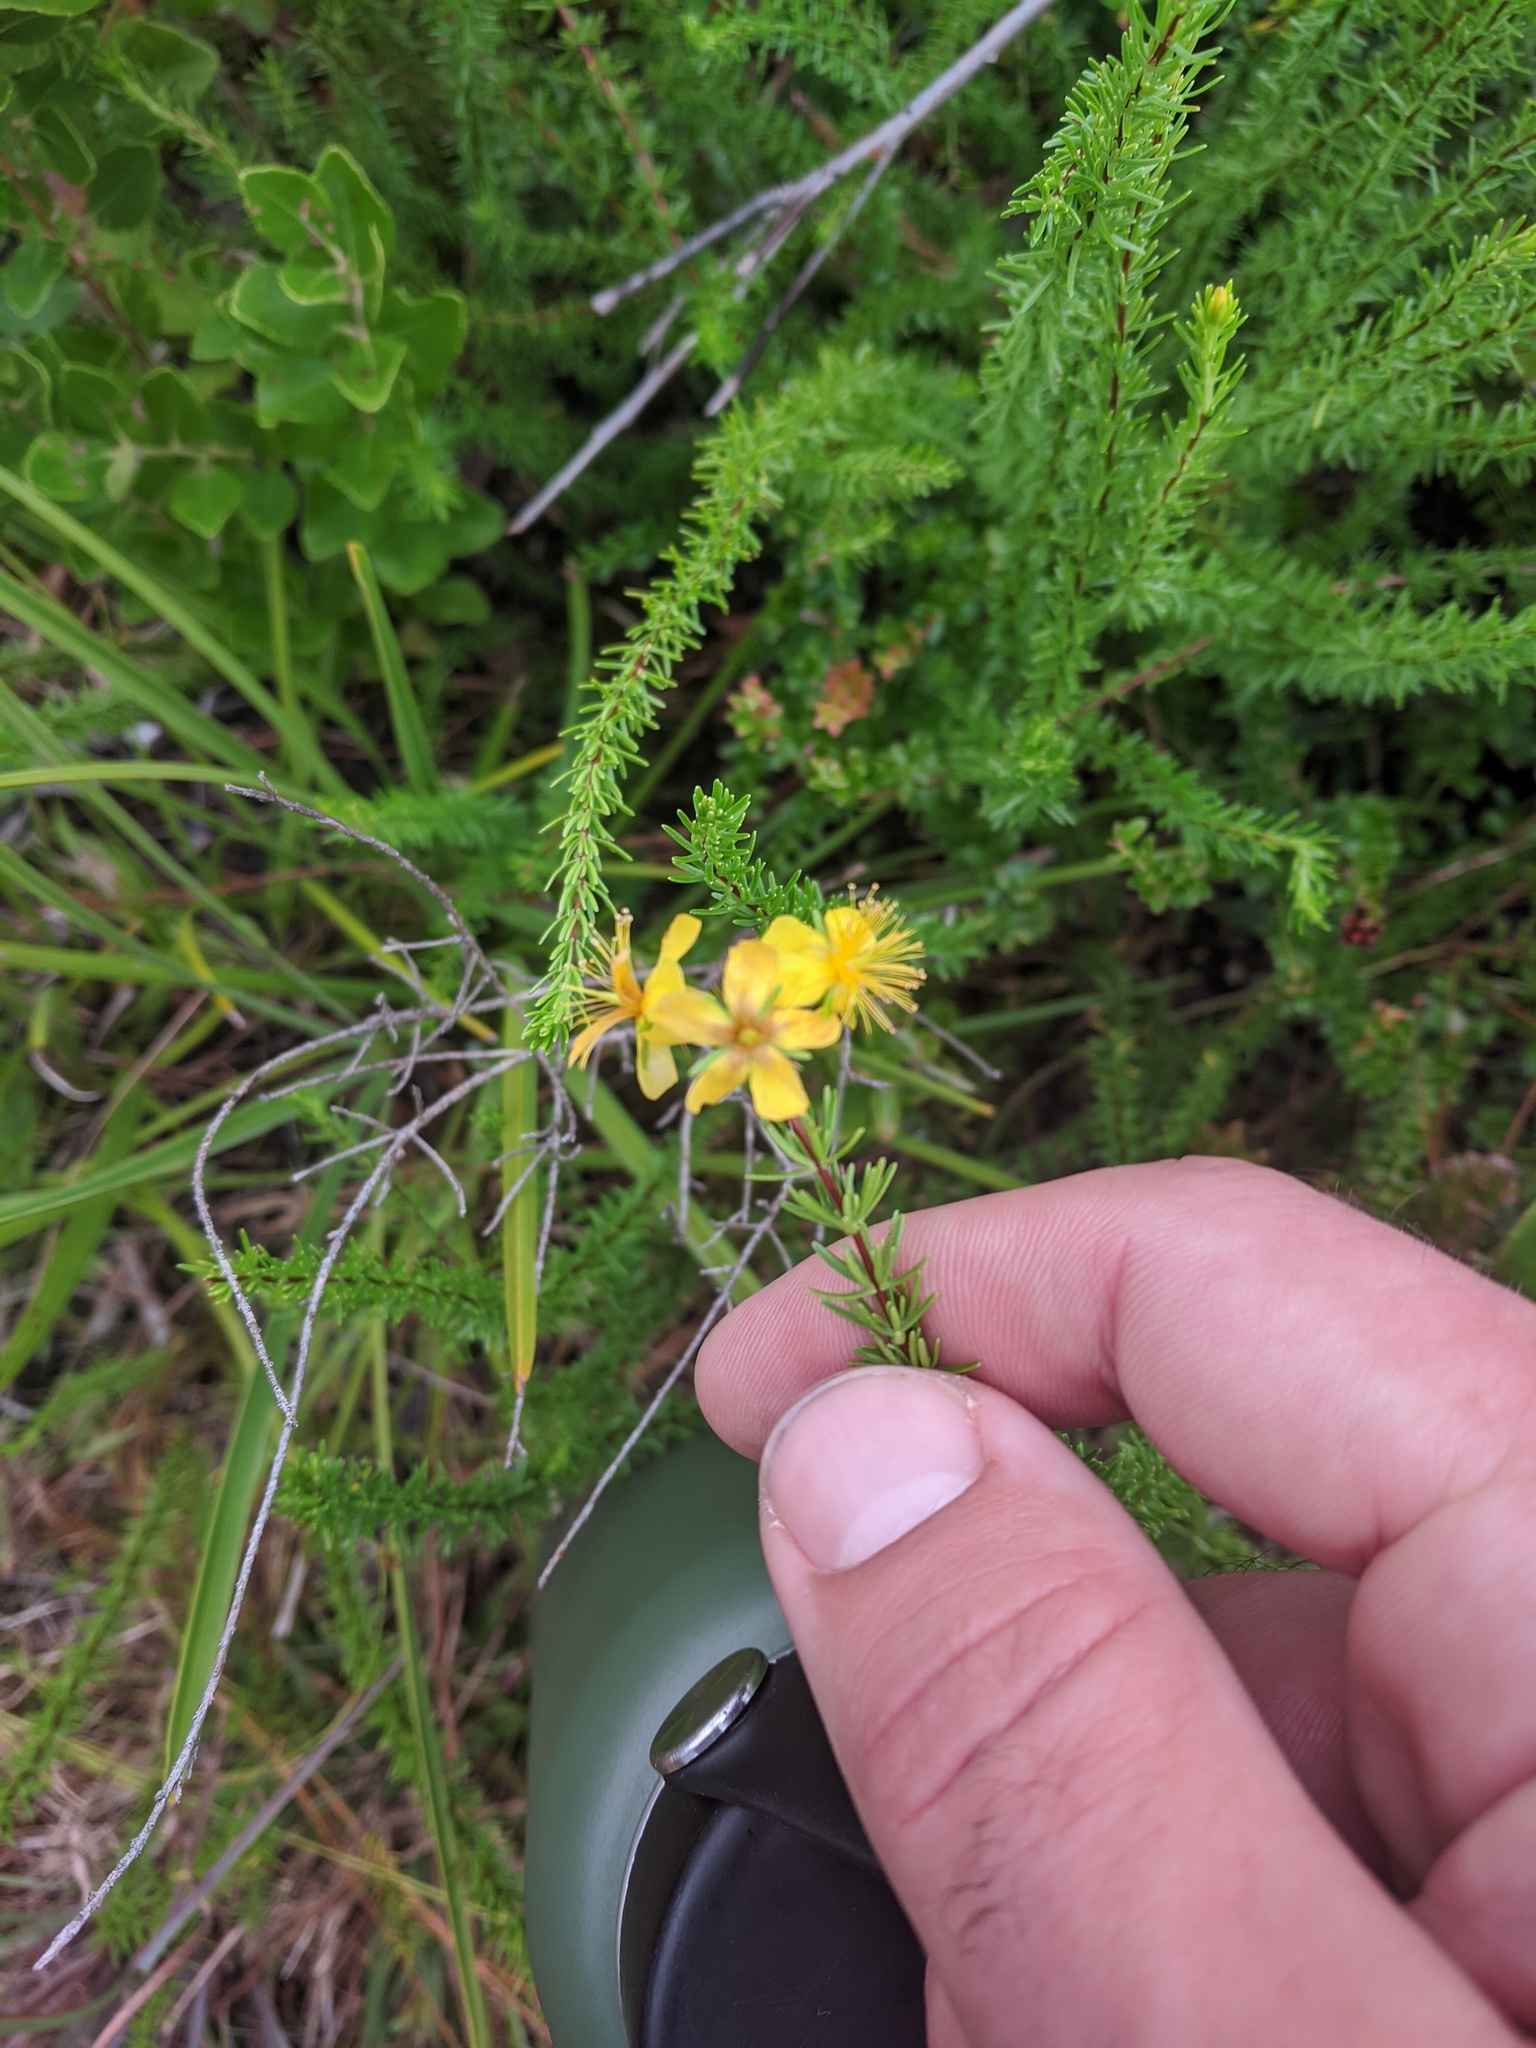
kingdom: Plantae
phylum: Tracheophyta
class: Magnoliopsida
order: Malpighiales
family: Hypericaceae
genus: Hypericum
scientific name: Hypericum tenuifolium
